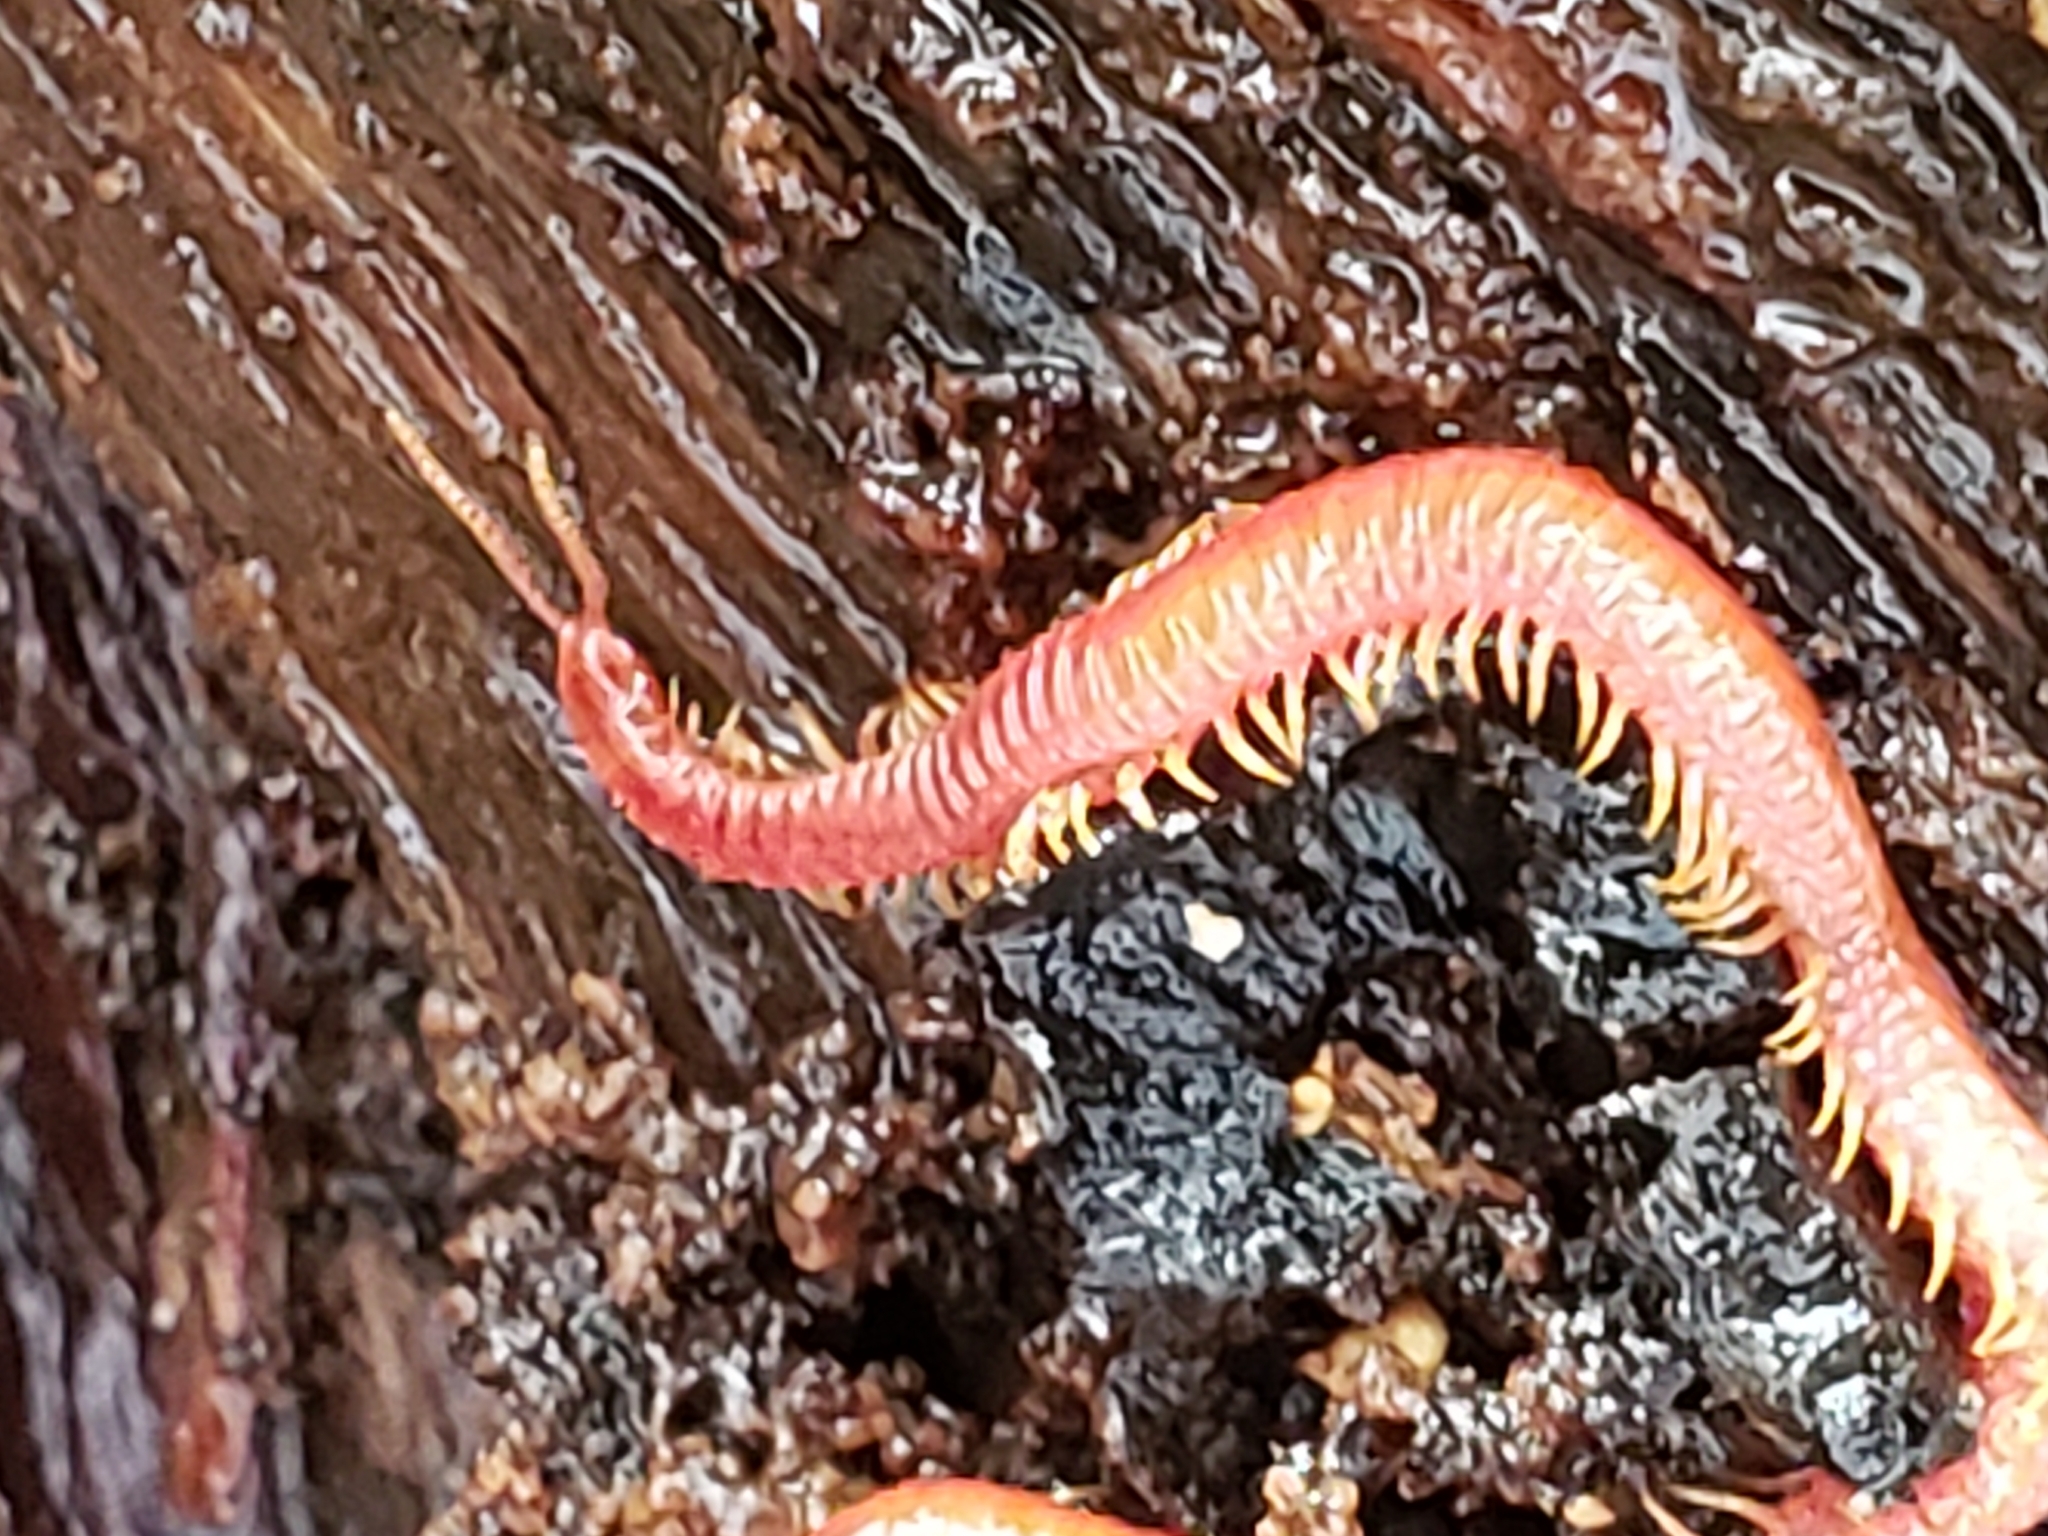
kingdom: Animalia
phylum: Arthropoda
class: Chilopoda
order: Geophilomorpha
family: Linotaeniidae
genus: Strigamia
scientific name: Strigamia bidens
